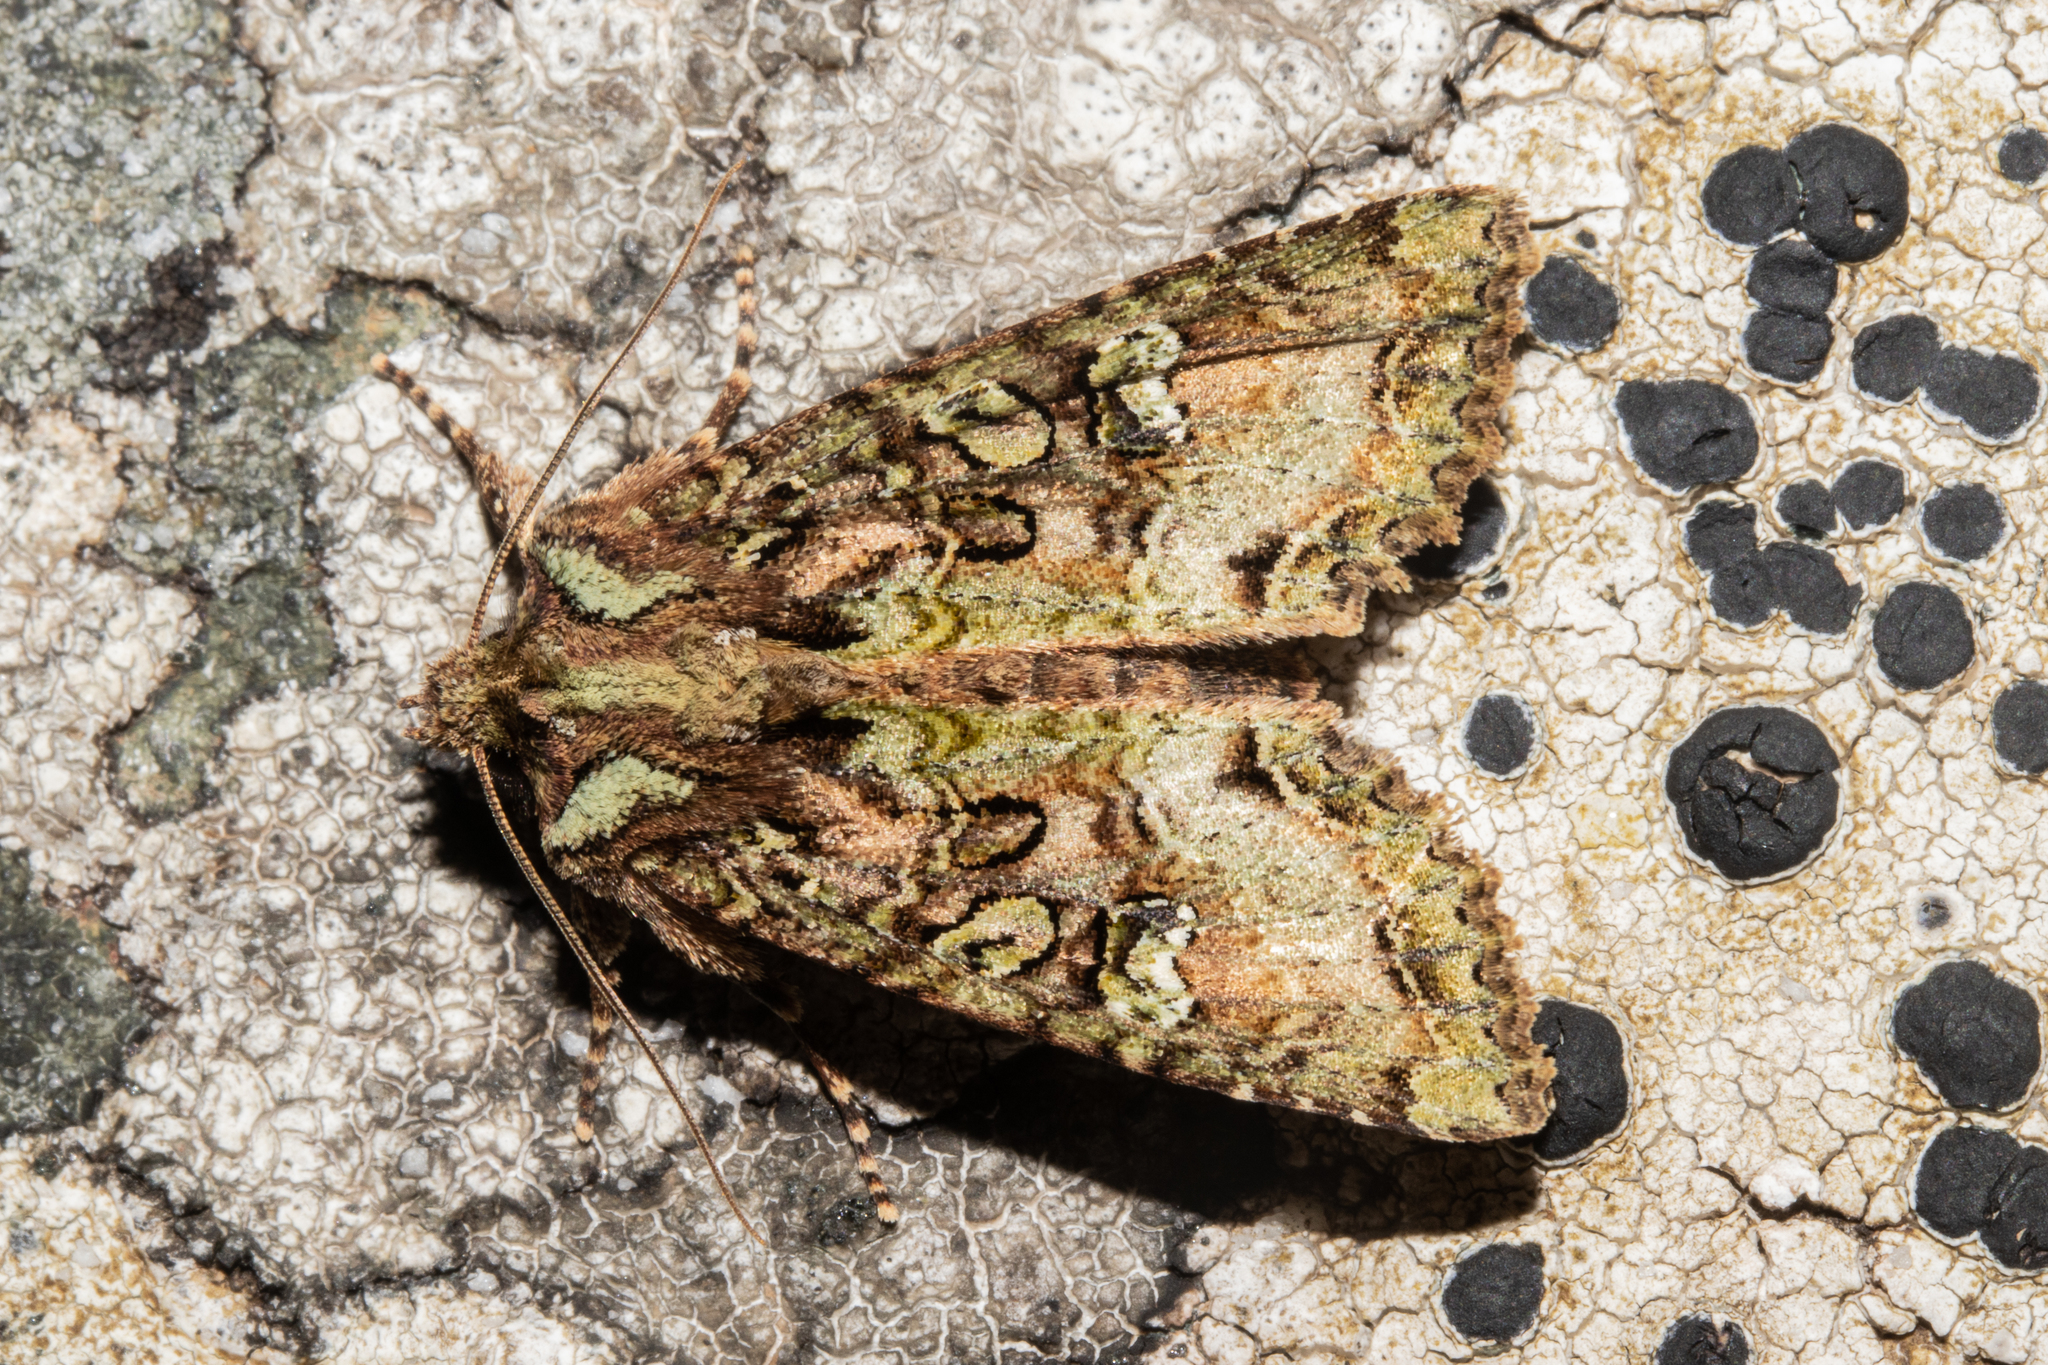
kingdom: Animalia
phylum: Arthropoda
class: Insecta
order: Lepidoptera
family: Noctuidae
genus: Meterana
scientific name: Meterana
